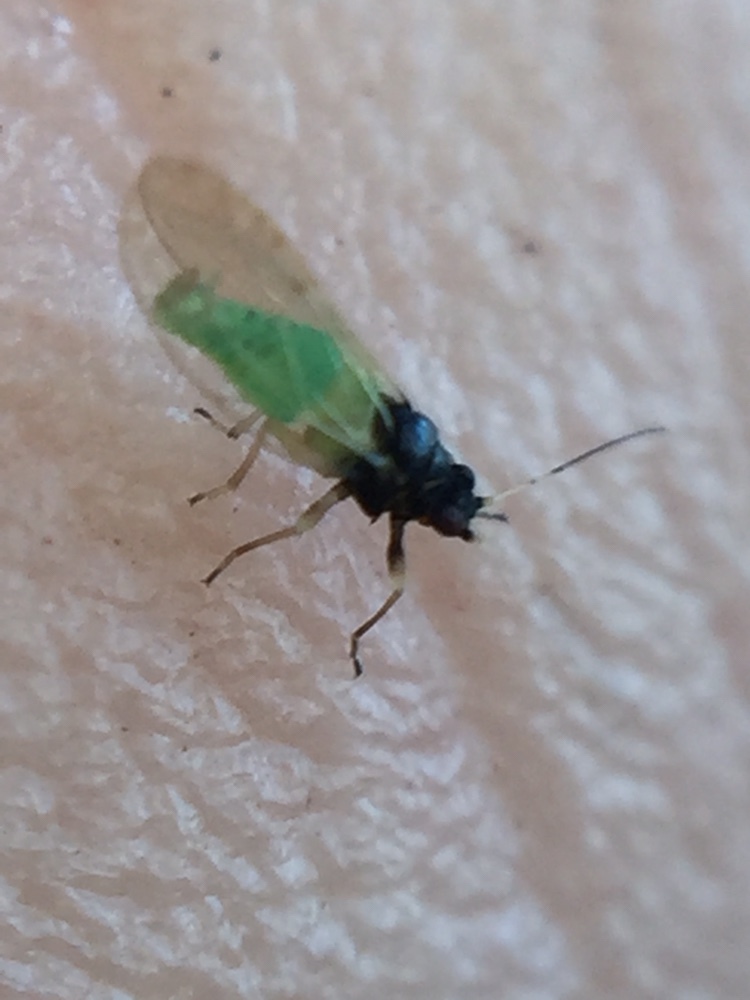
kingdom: Animalia
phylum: Arthropoda
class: Insecta
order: Hemiptera
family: Psyllidae
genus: Acizzia
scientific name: Acizzia solanicola
